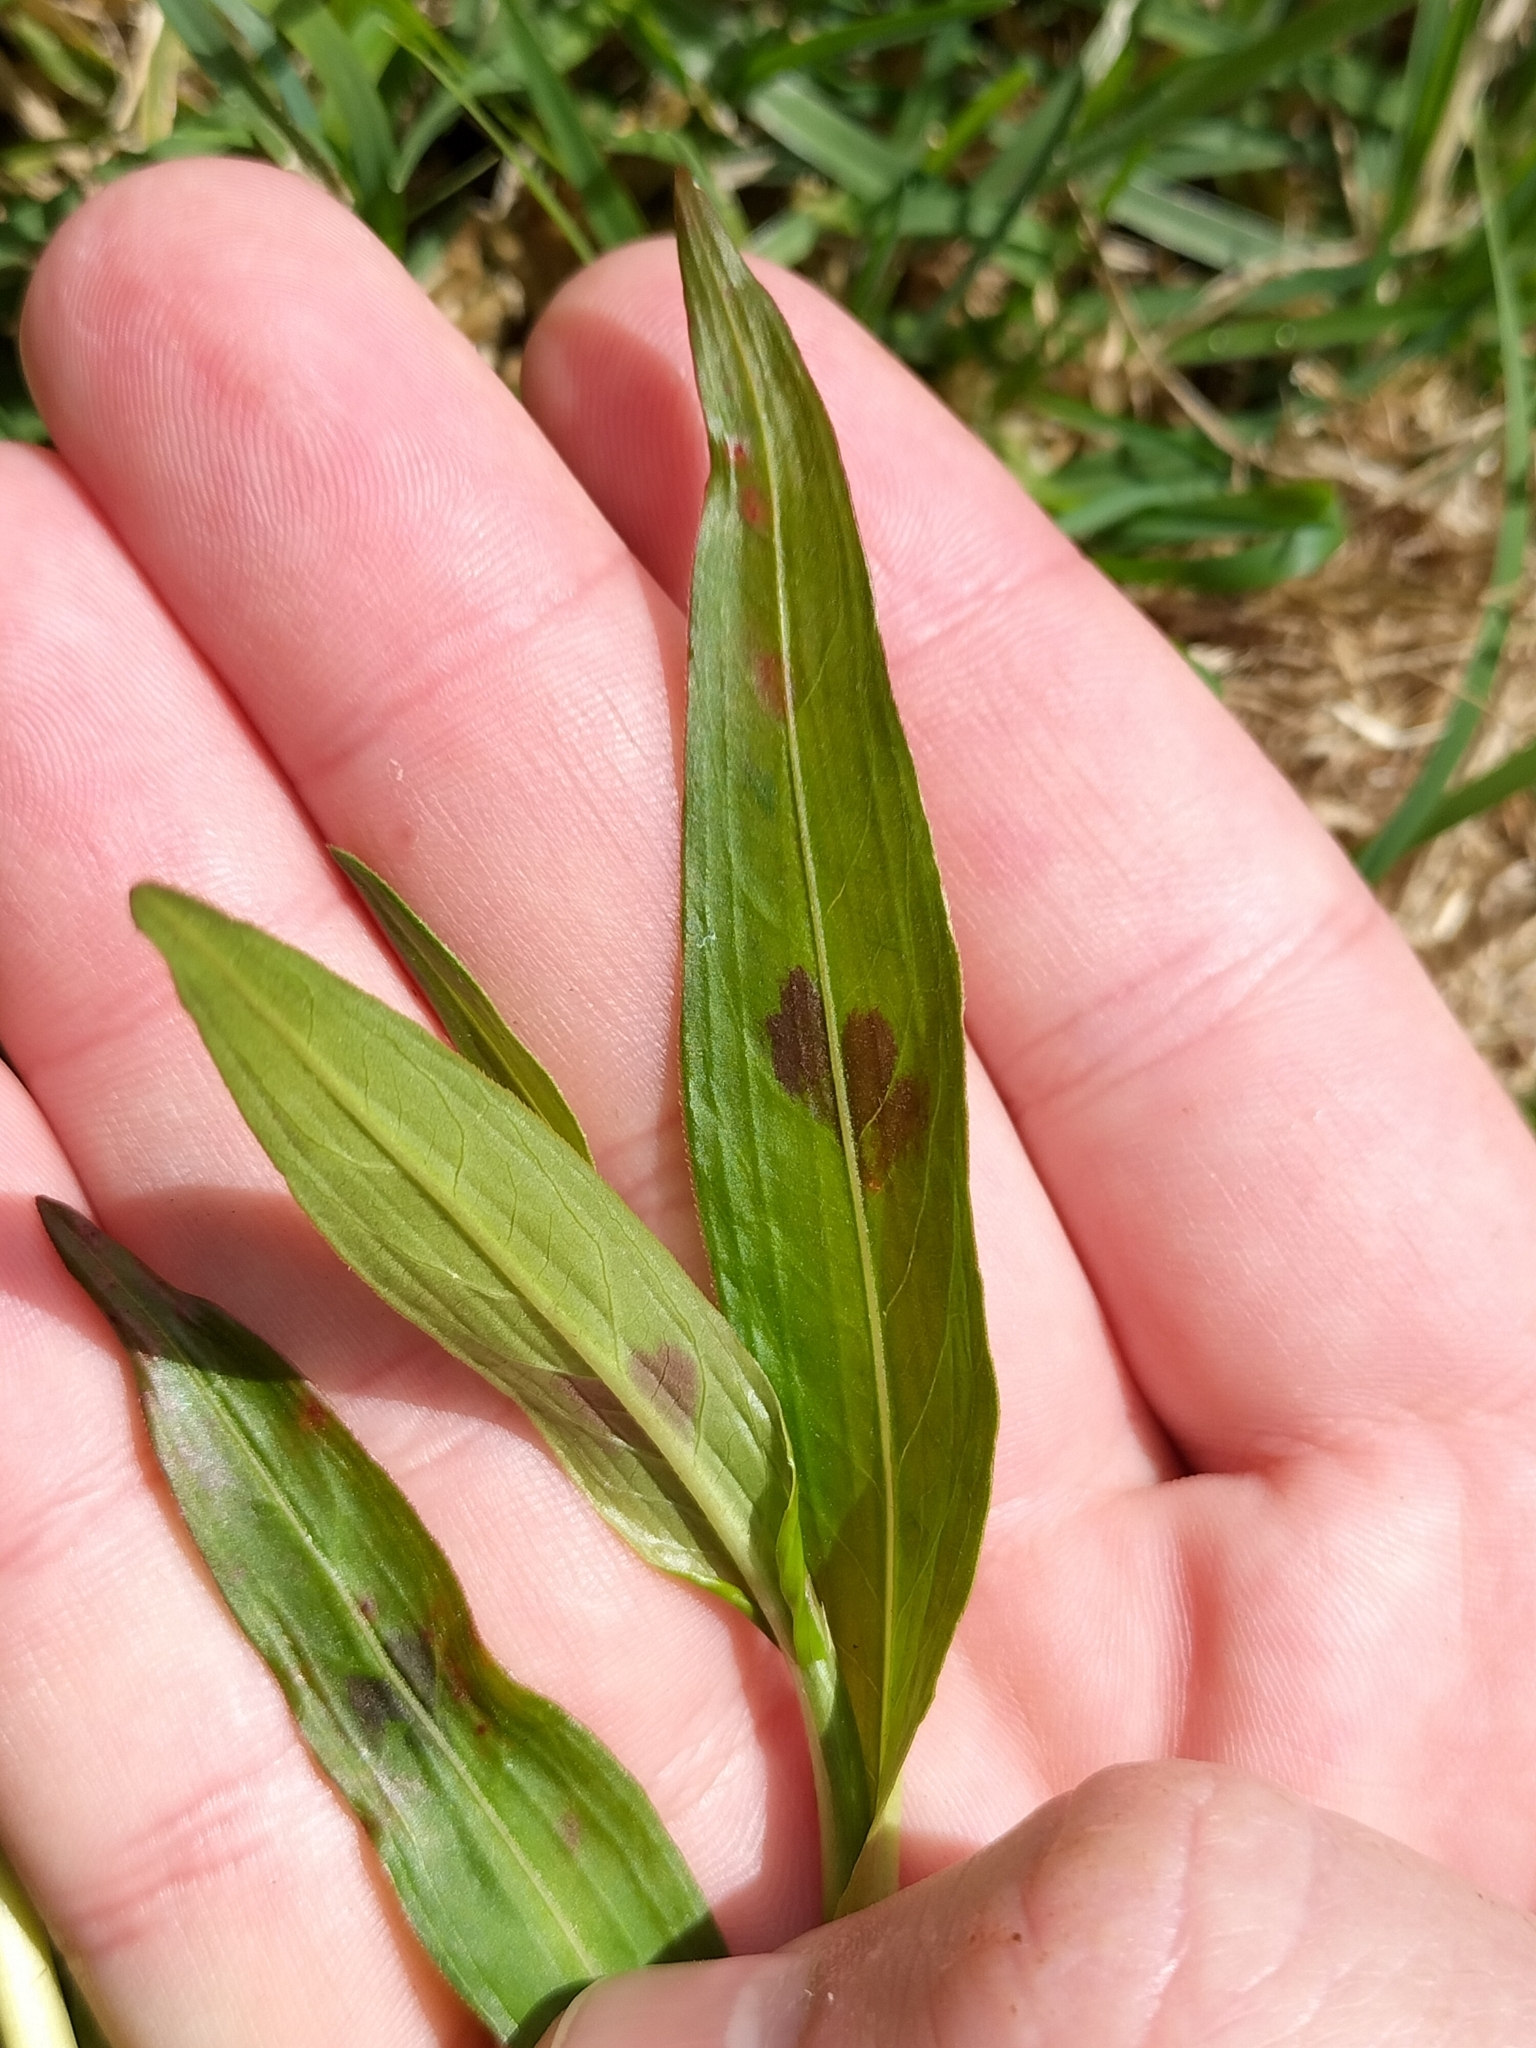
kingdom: Plantae
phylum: Tracheophyta
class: Magnoliopsida
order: Caryophyllales
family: Polygonaceae
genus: Persicaria
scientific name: Persicaria decipiens
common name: Willow-weed
